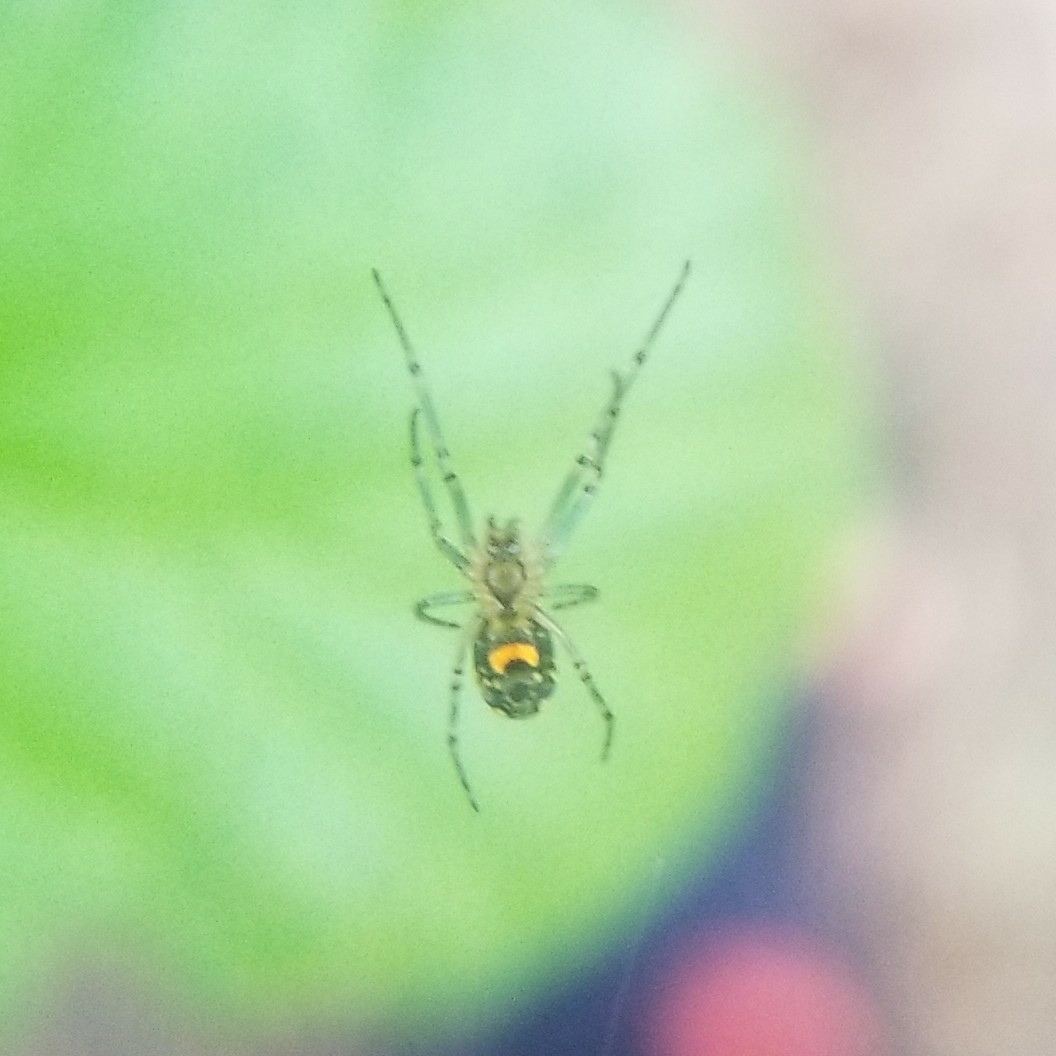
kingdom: Animalia
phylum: Arthropoda
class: Arachnida
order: Araneae
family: Tetragnathidae
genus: Leucauge
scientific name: Leucauge venusta
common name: Longjawed orb weavers
